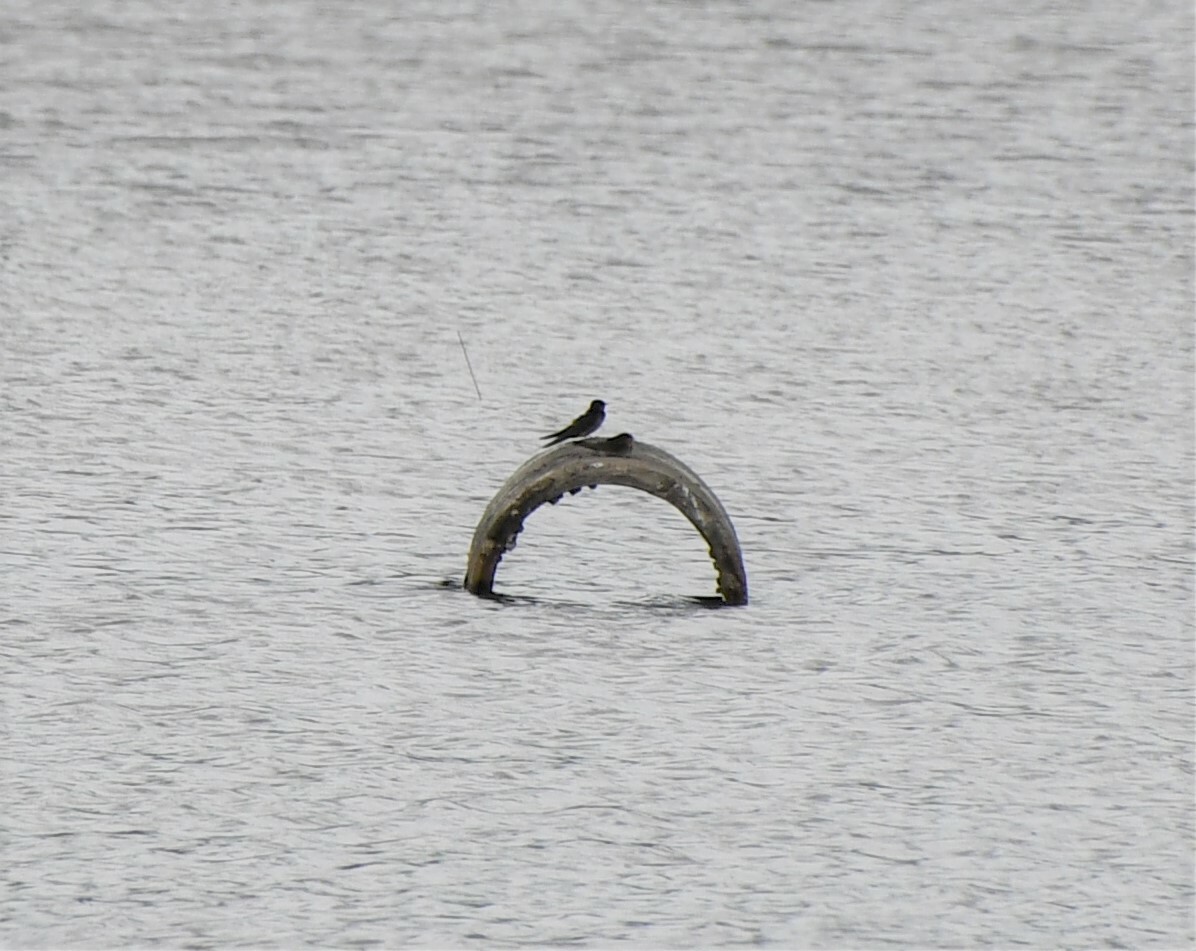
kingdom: Animalia
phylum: Chordata
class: Aves
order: Passeriformes
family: Hirundinidae
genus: Hirundo
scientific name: Hirundo neoxena
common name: Welcome swallow
